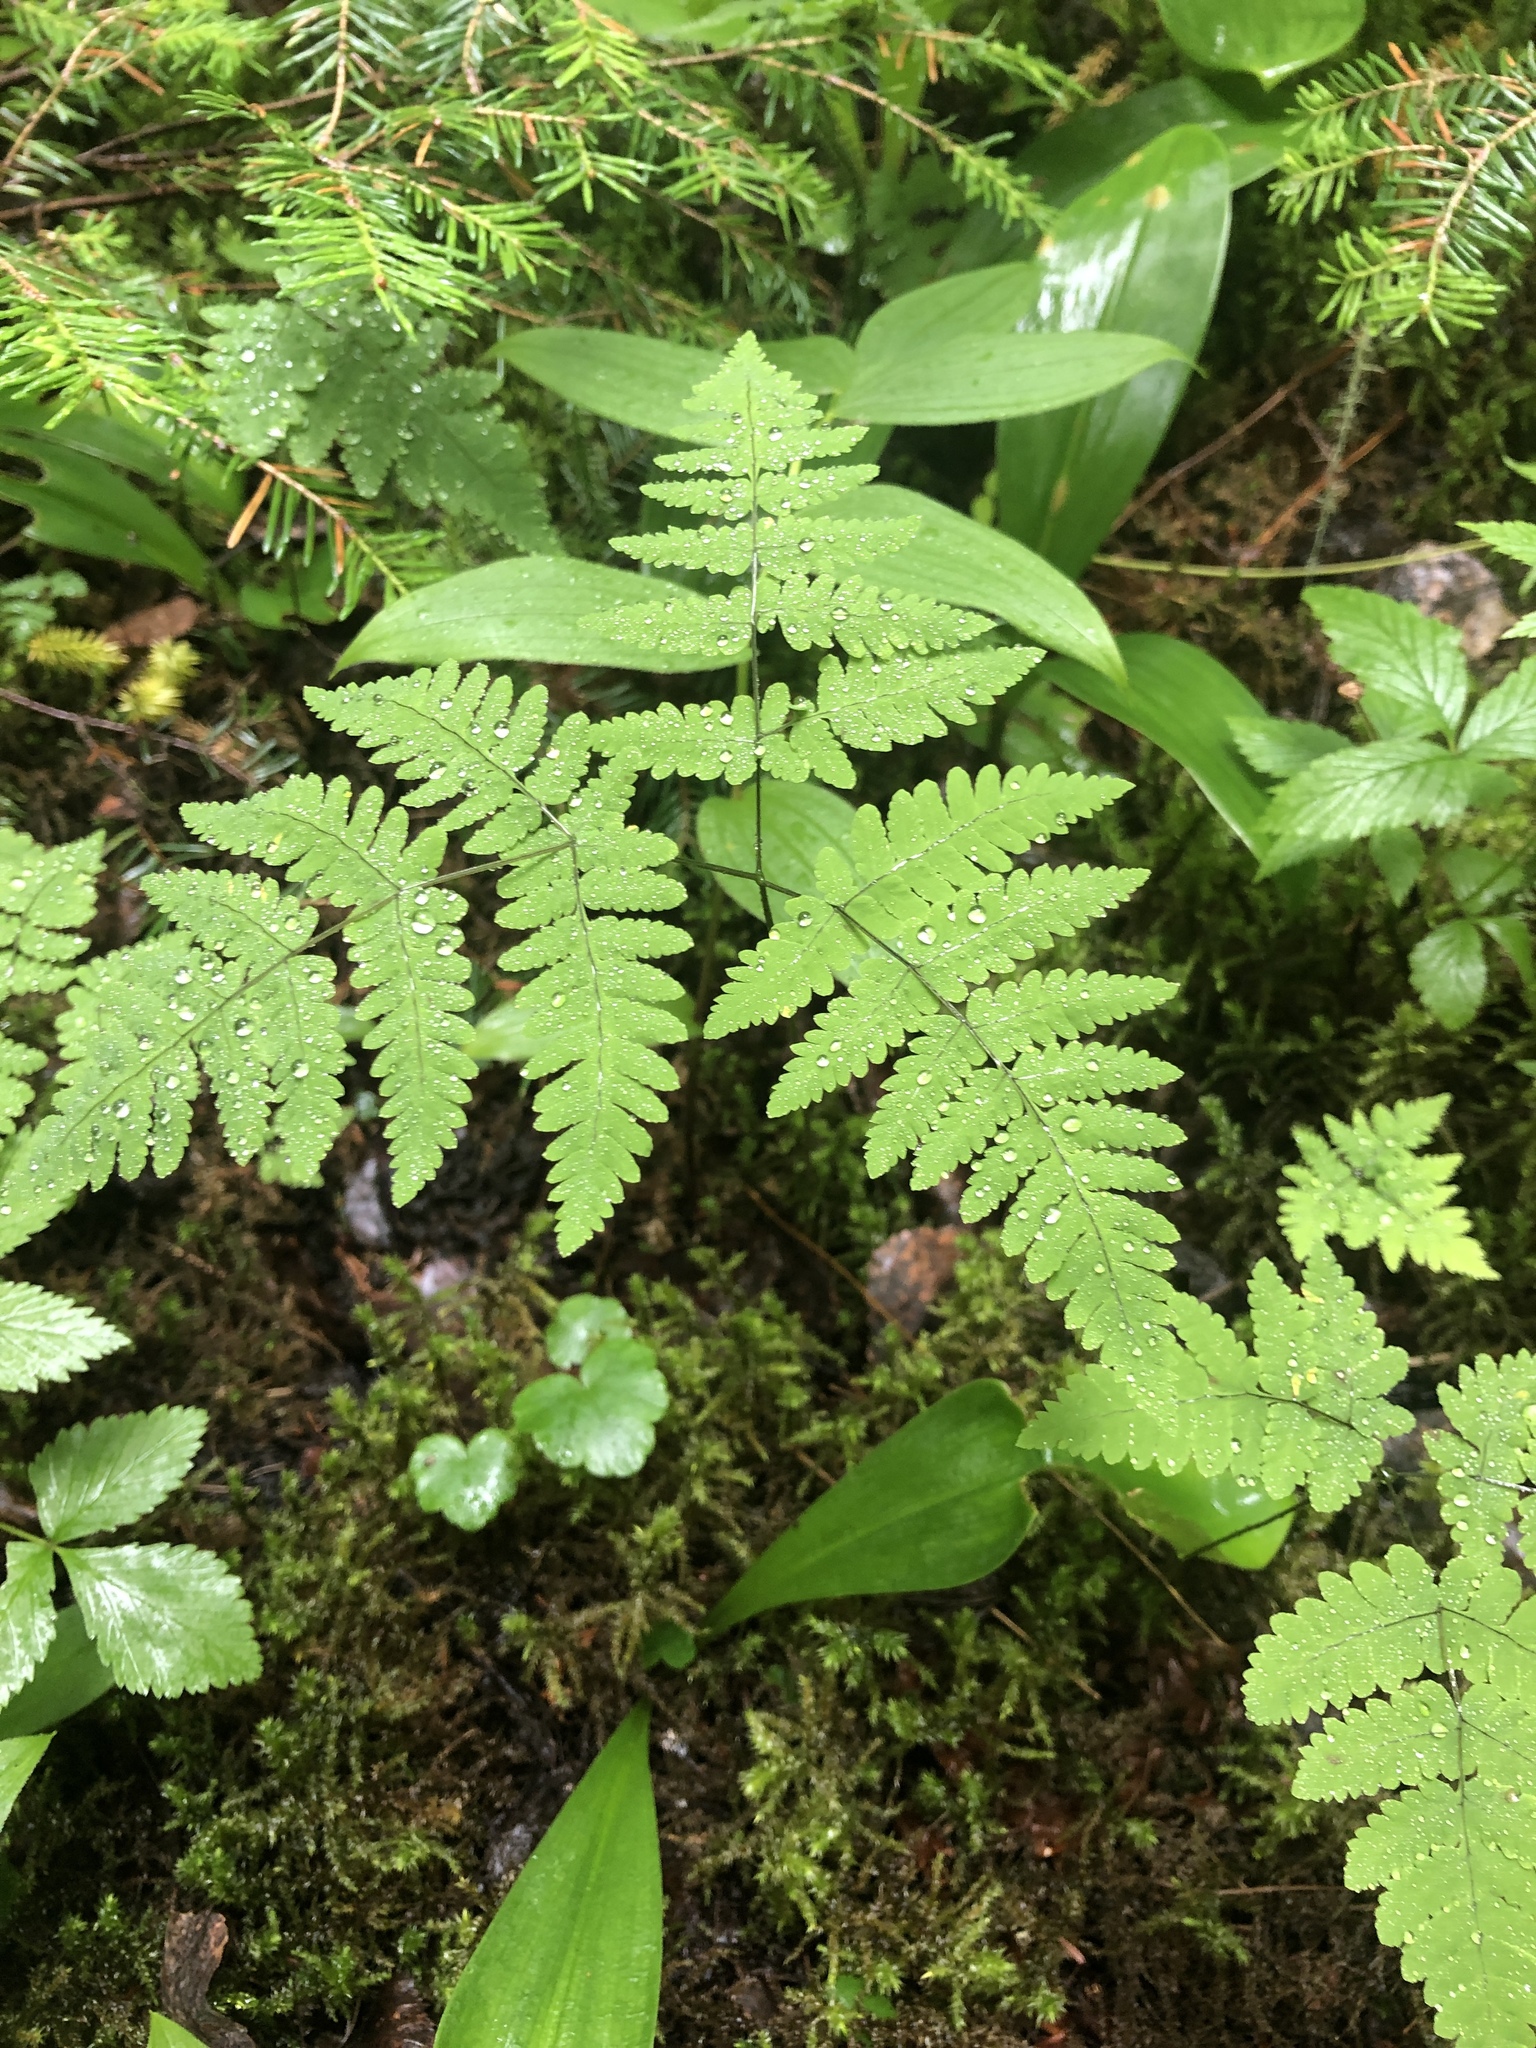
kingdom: Plantae
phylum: Tracheophyta
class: Polypodiopsida
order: Polypodiales
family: Cystopteridaceae
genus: Gymnocarpium
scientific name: Gymnocarpium dryopteris
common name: Oak fern
